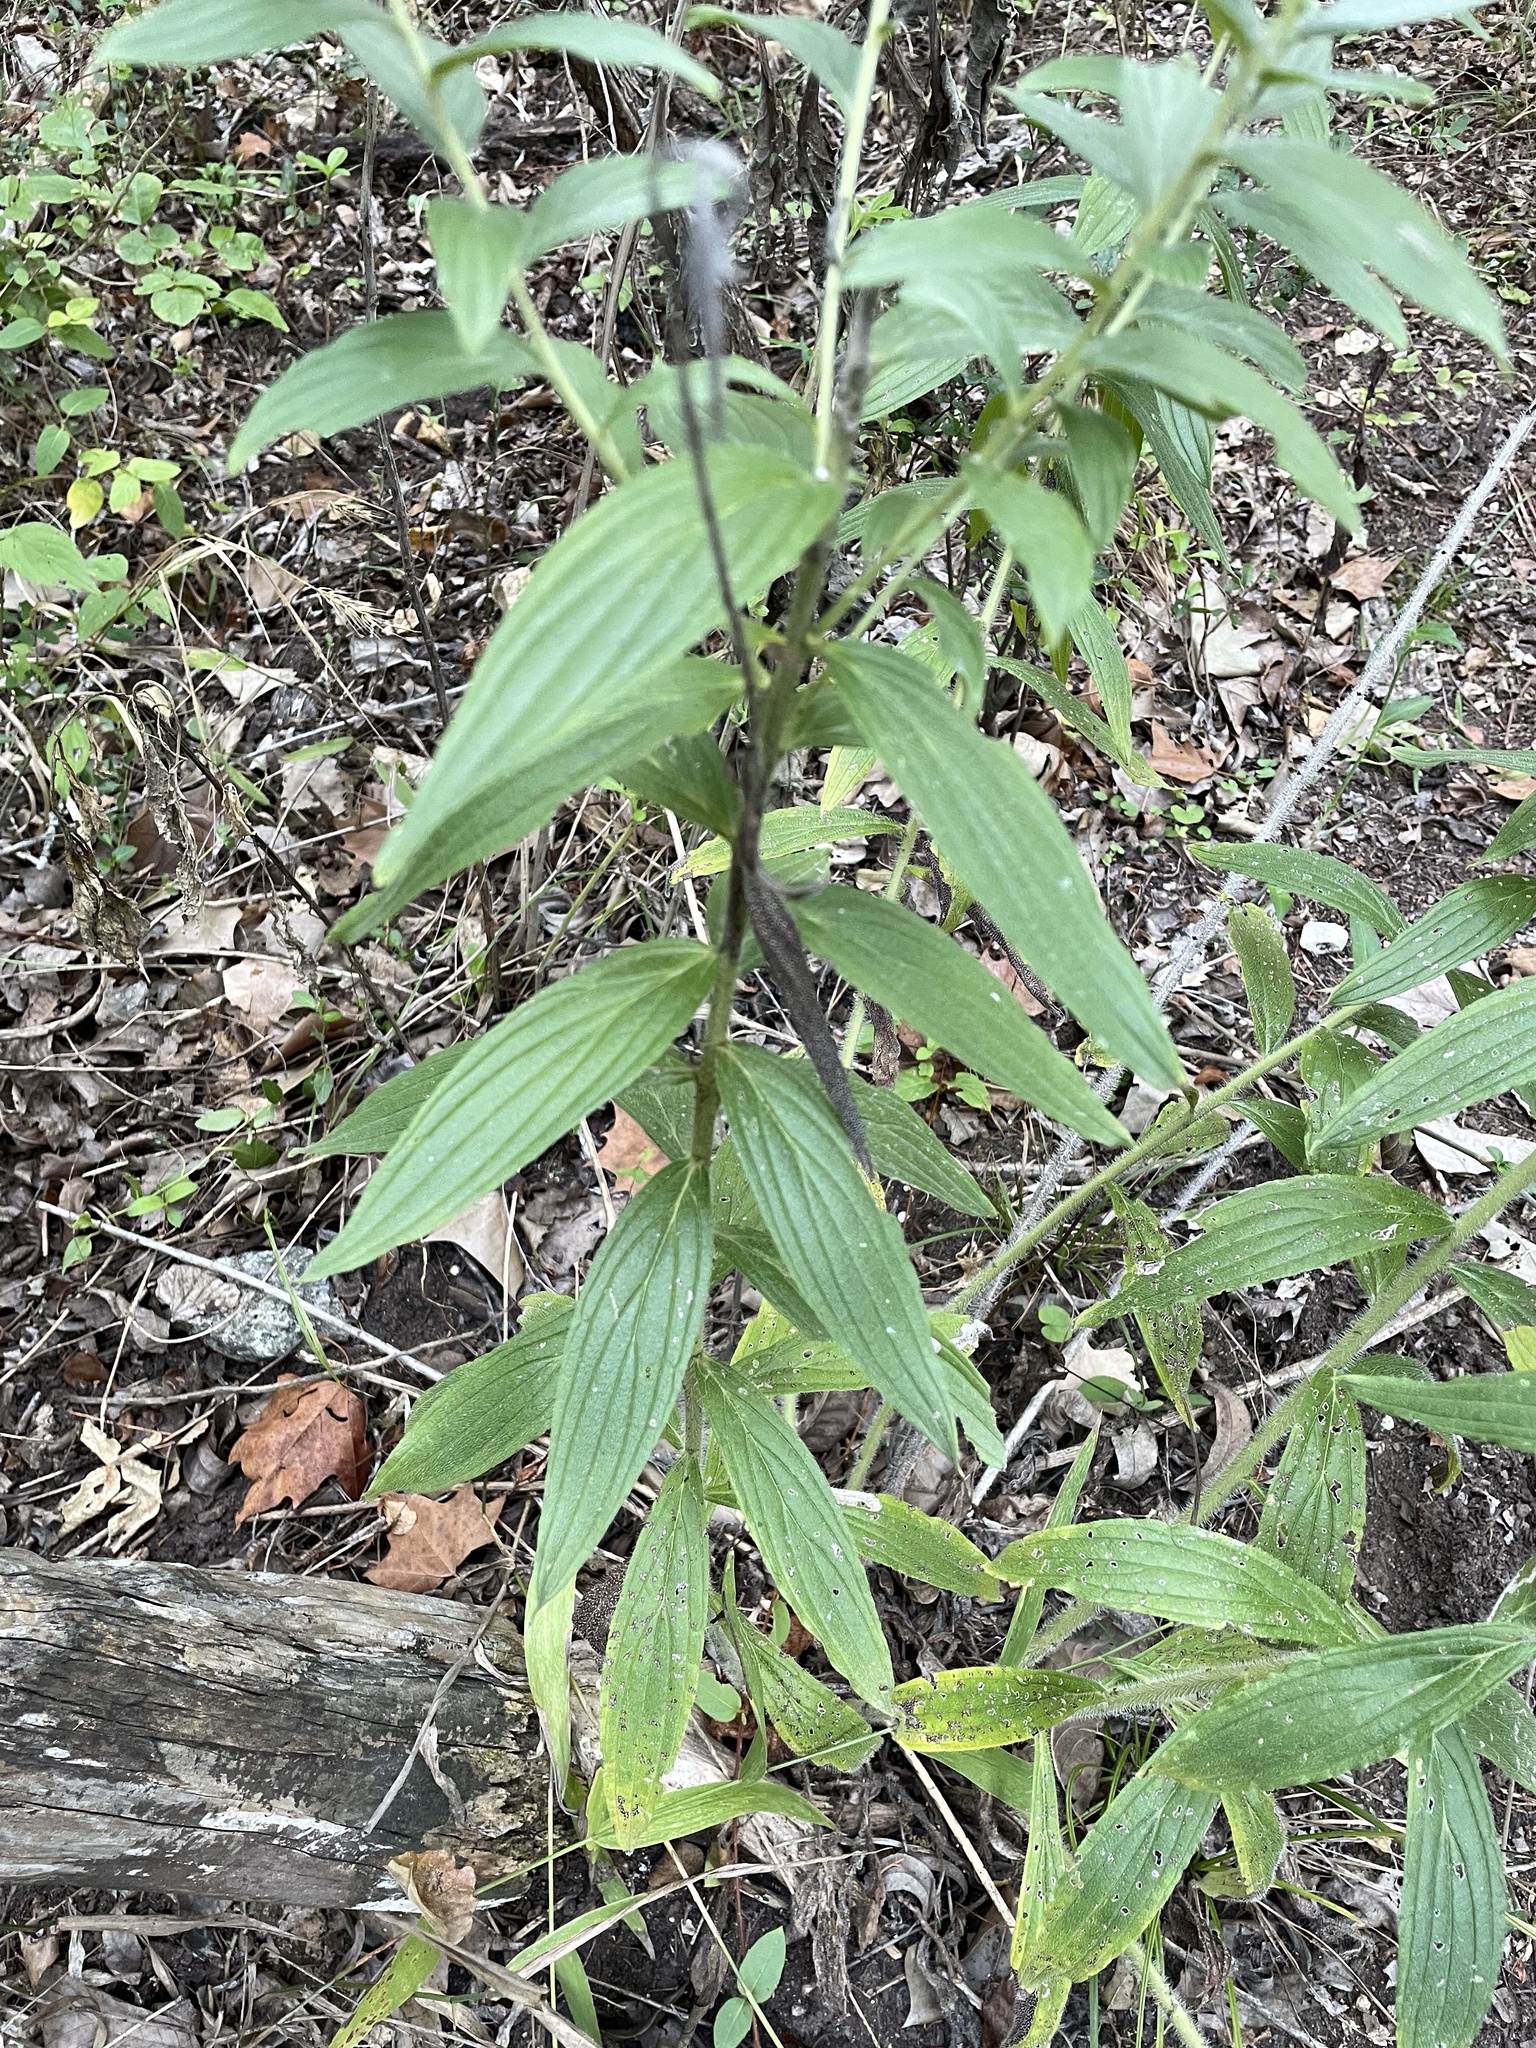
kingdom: Plantae
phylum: Tracheophyta
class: Magnoliopsida
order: Boraginales
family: Boraginaceae
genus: Lithospermum
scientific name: Lithospermum caroliniense
